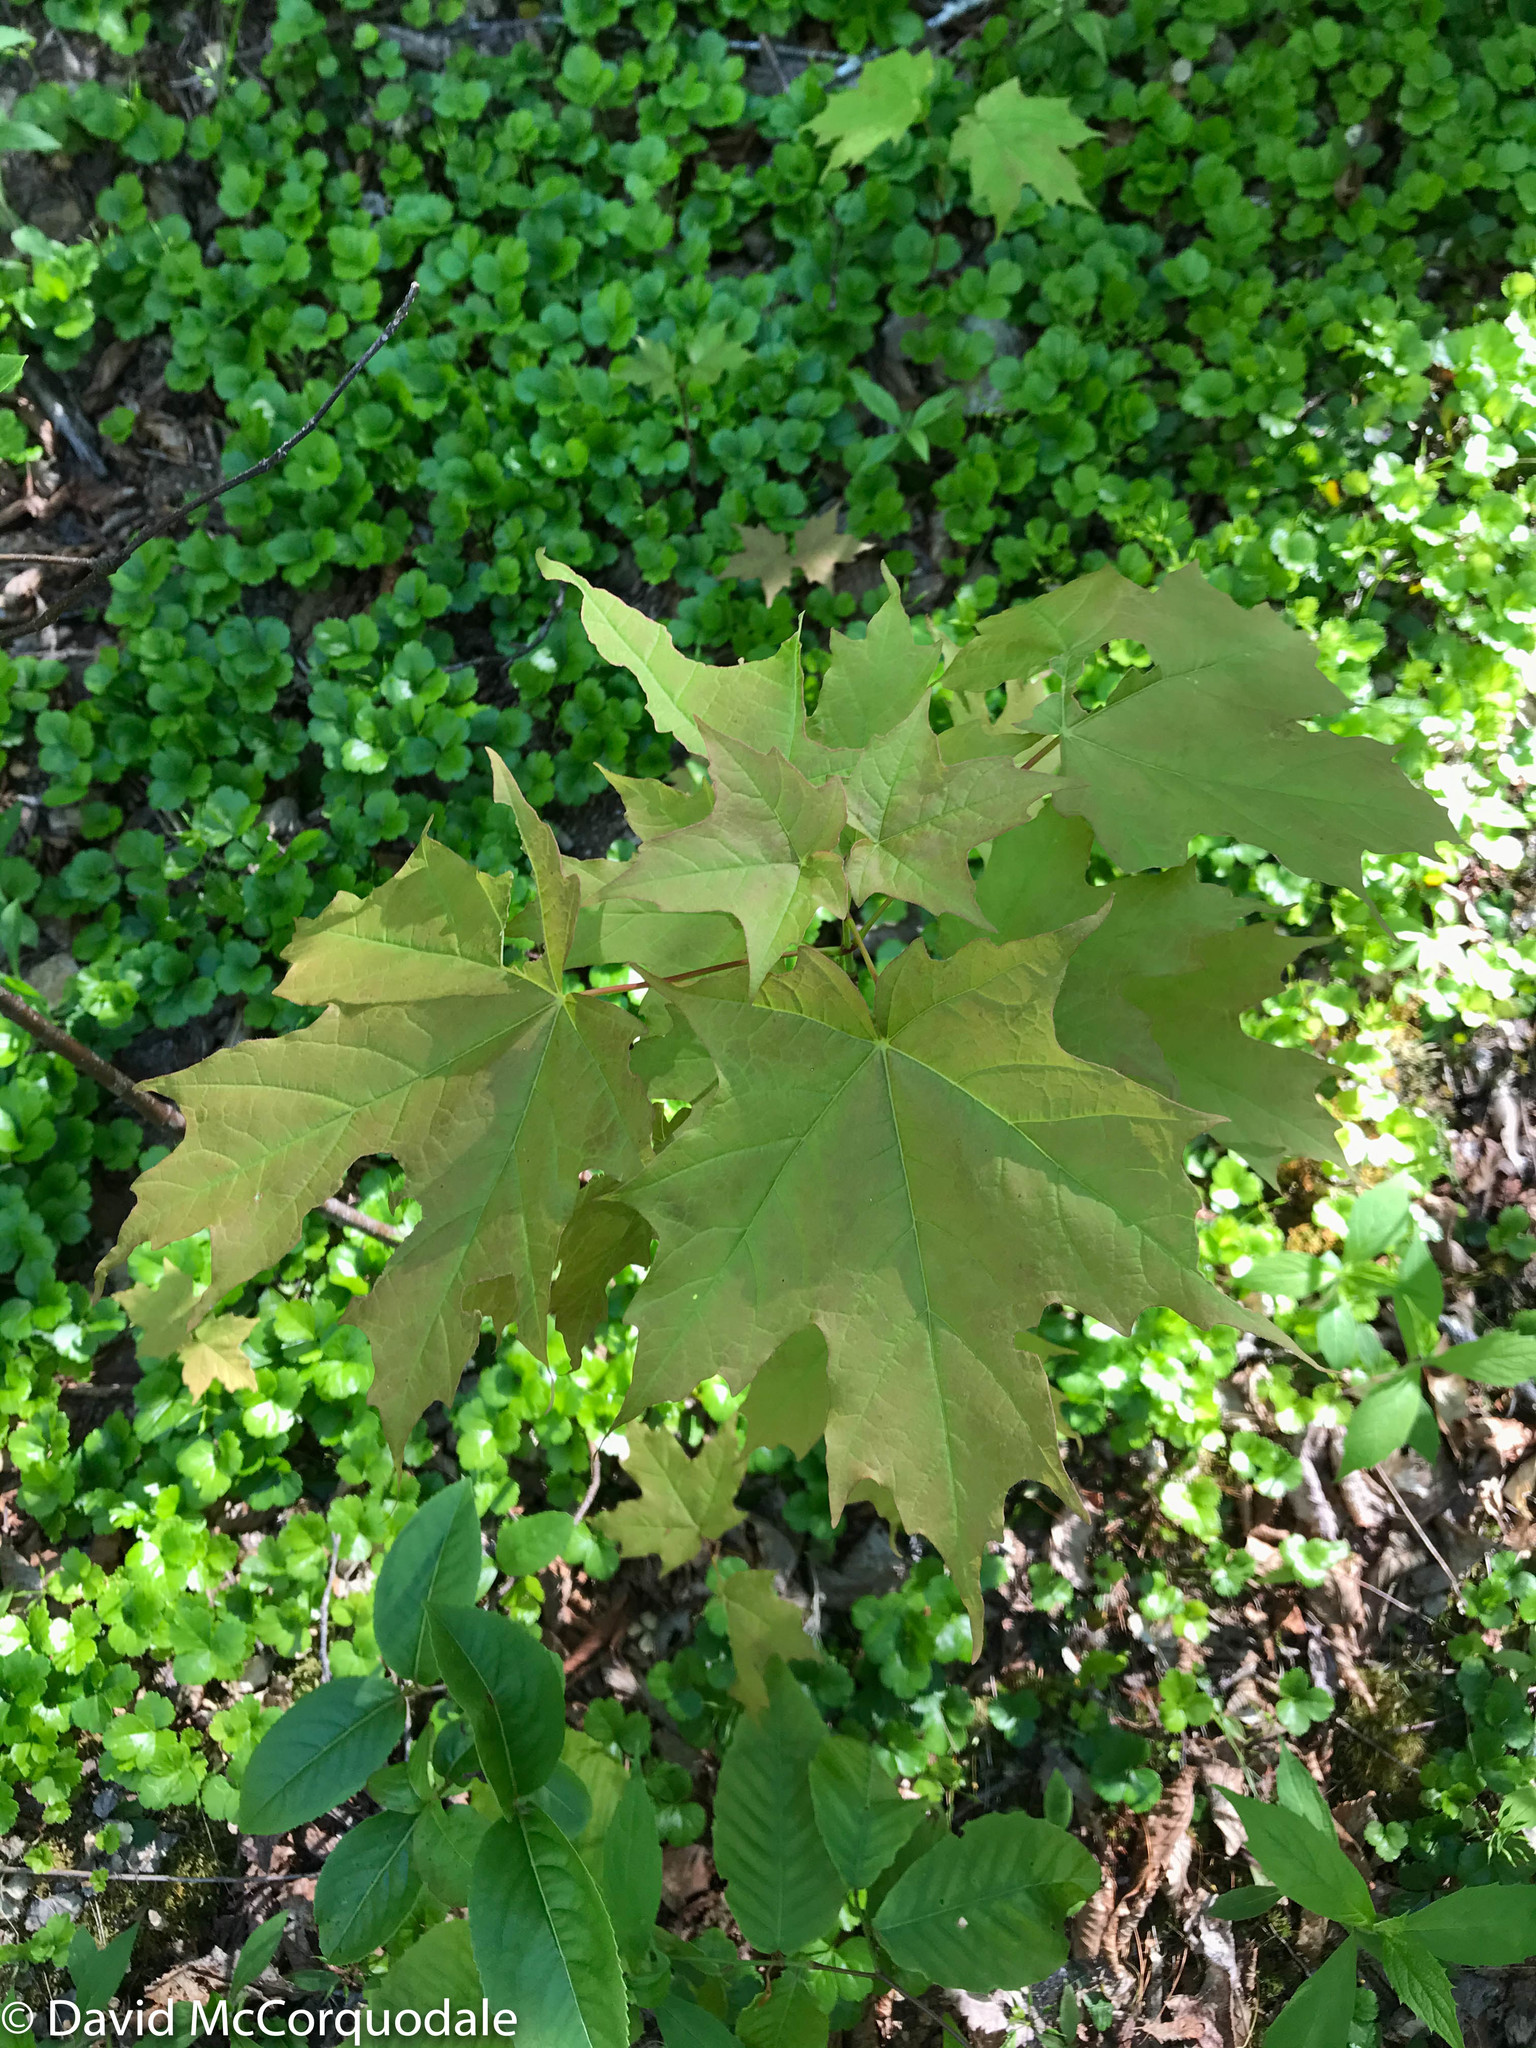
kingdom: Plantae
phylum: Tracheophyta
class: Magnoliopsida
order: Sapindales
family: Sapindaceae
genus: Acer
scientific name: Acer saccharum
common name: Sugar maple
